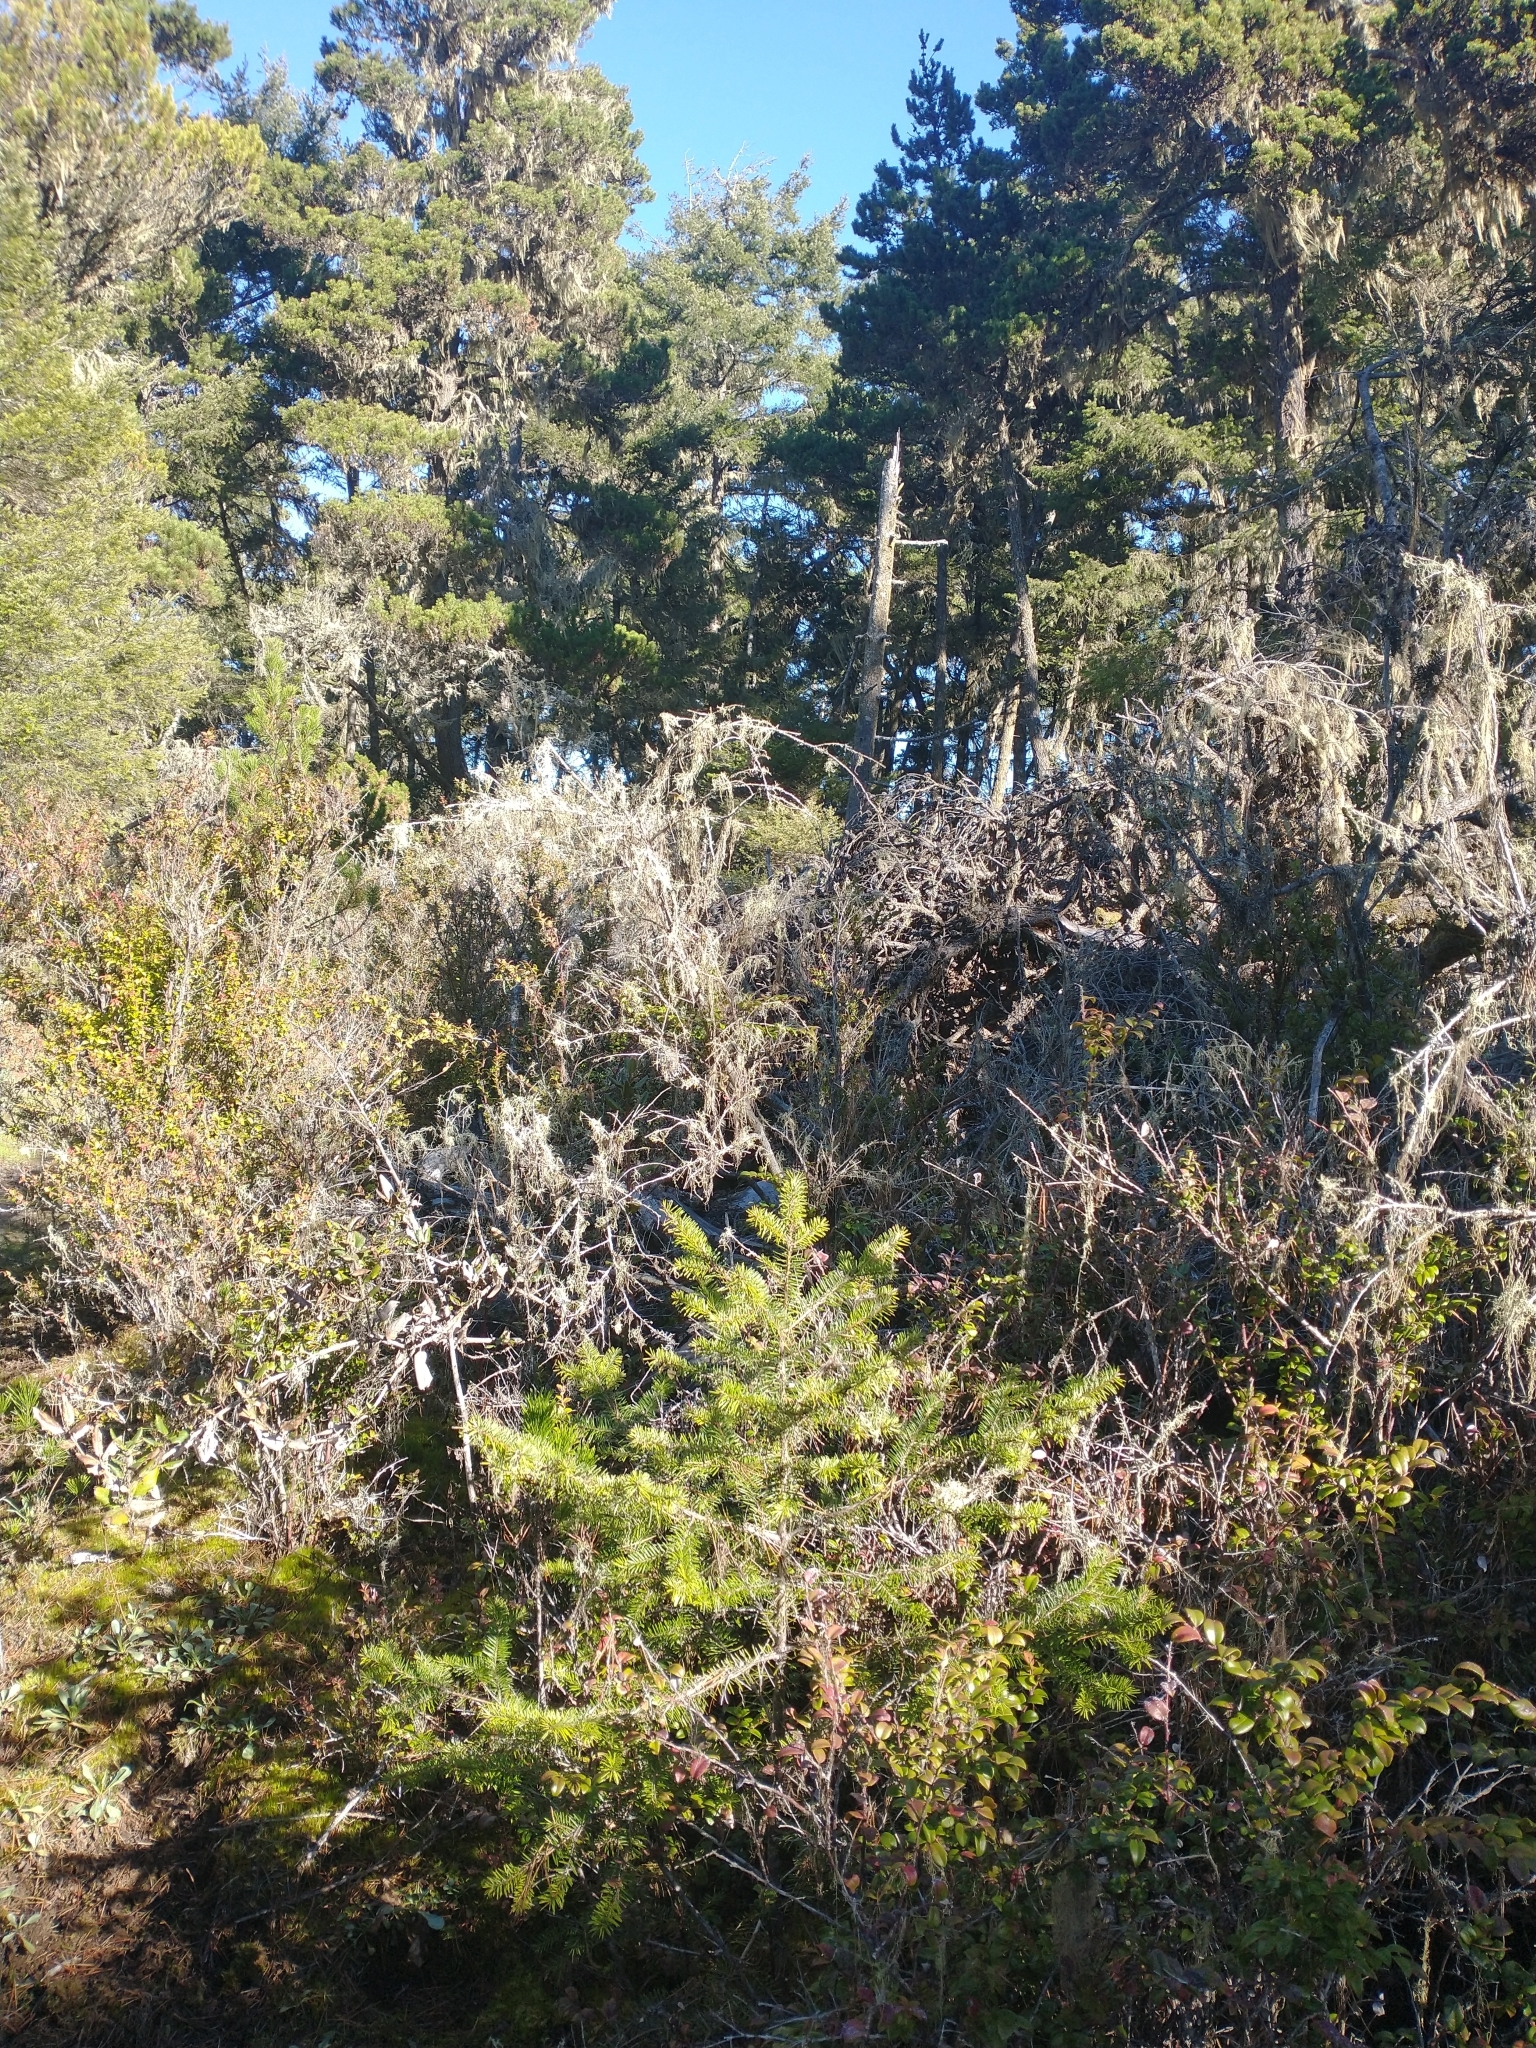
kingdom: Plantae
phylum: Tracheophyta
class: Pinopsida
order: Pinales
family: Pinaceae
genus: Pseudotsuga
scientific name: Pseudotsuga menziesii
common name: Douglas fir
